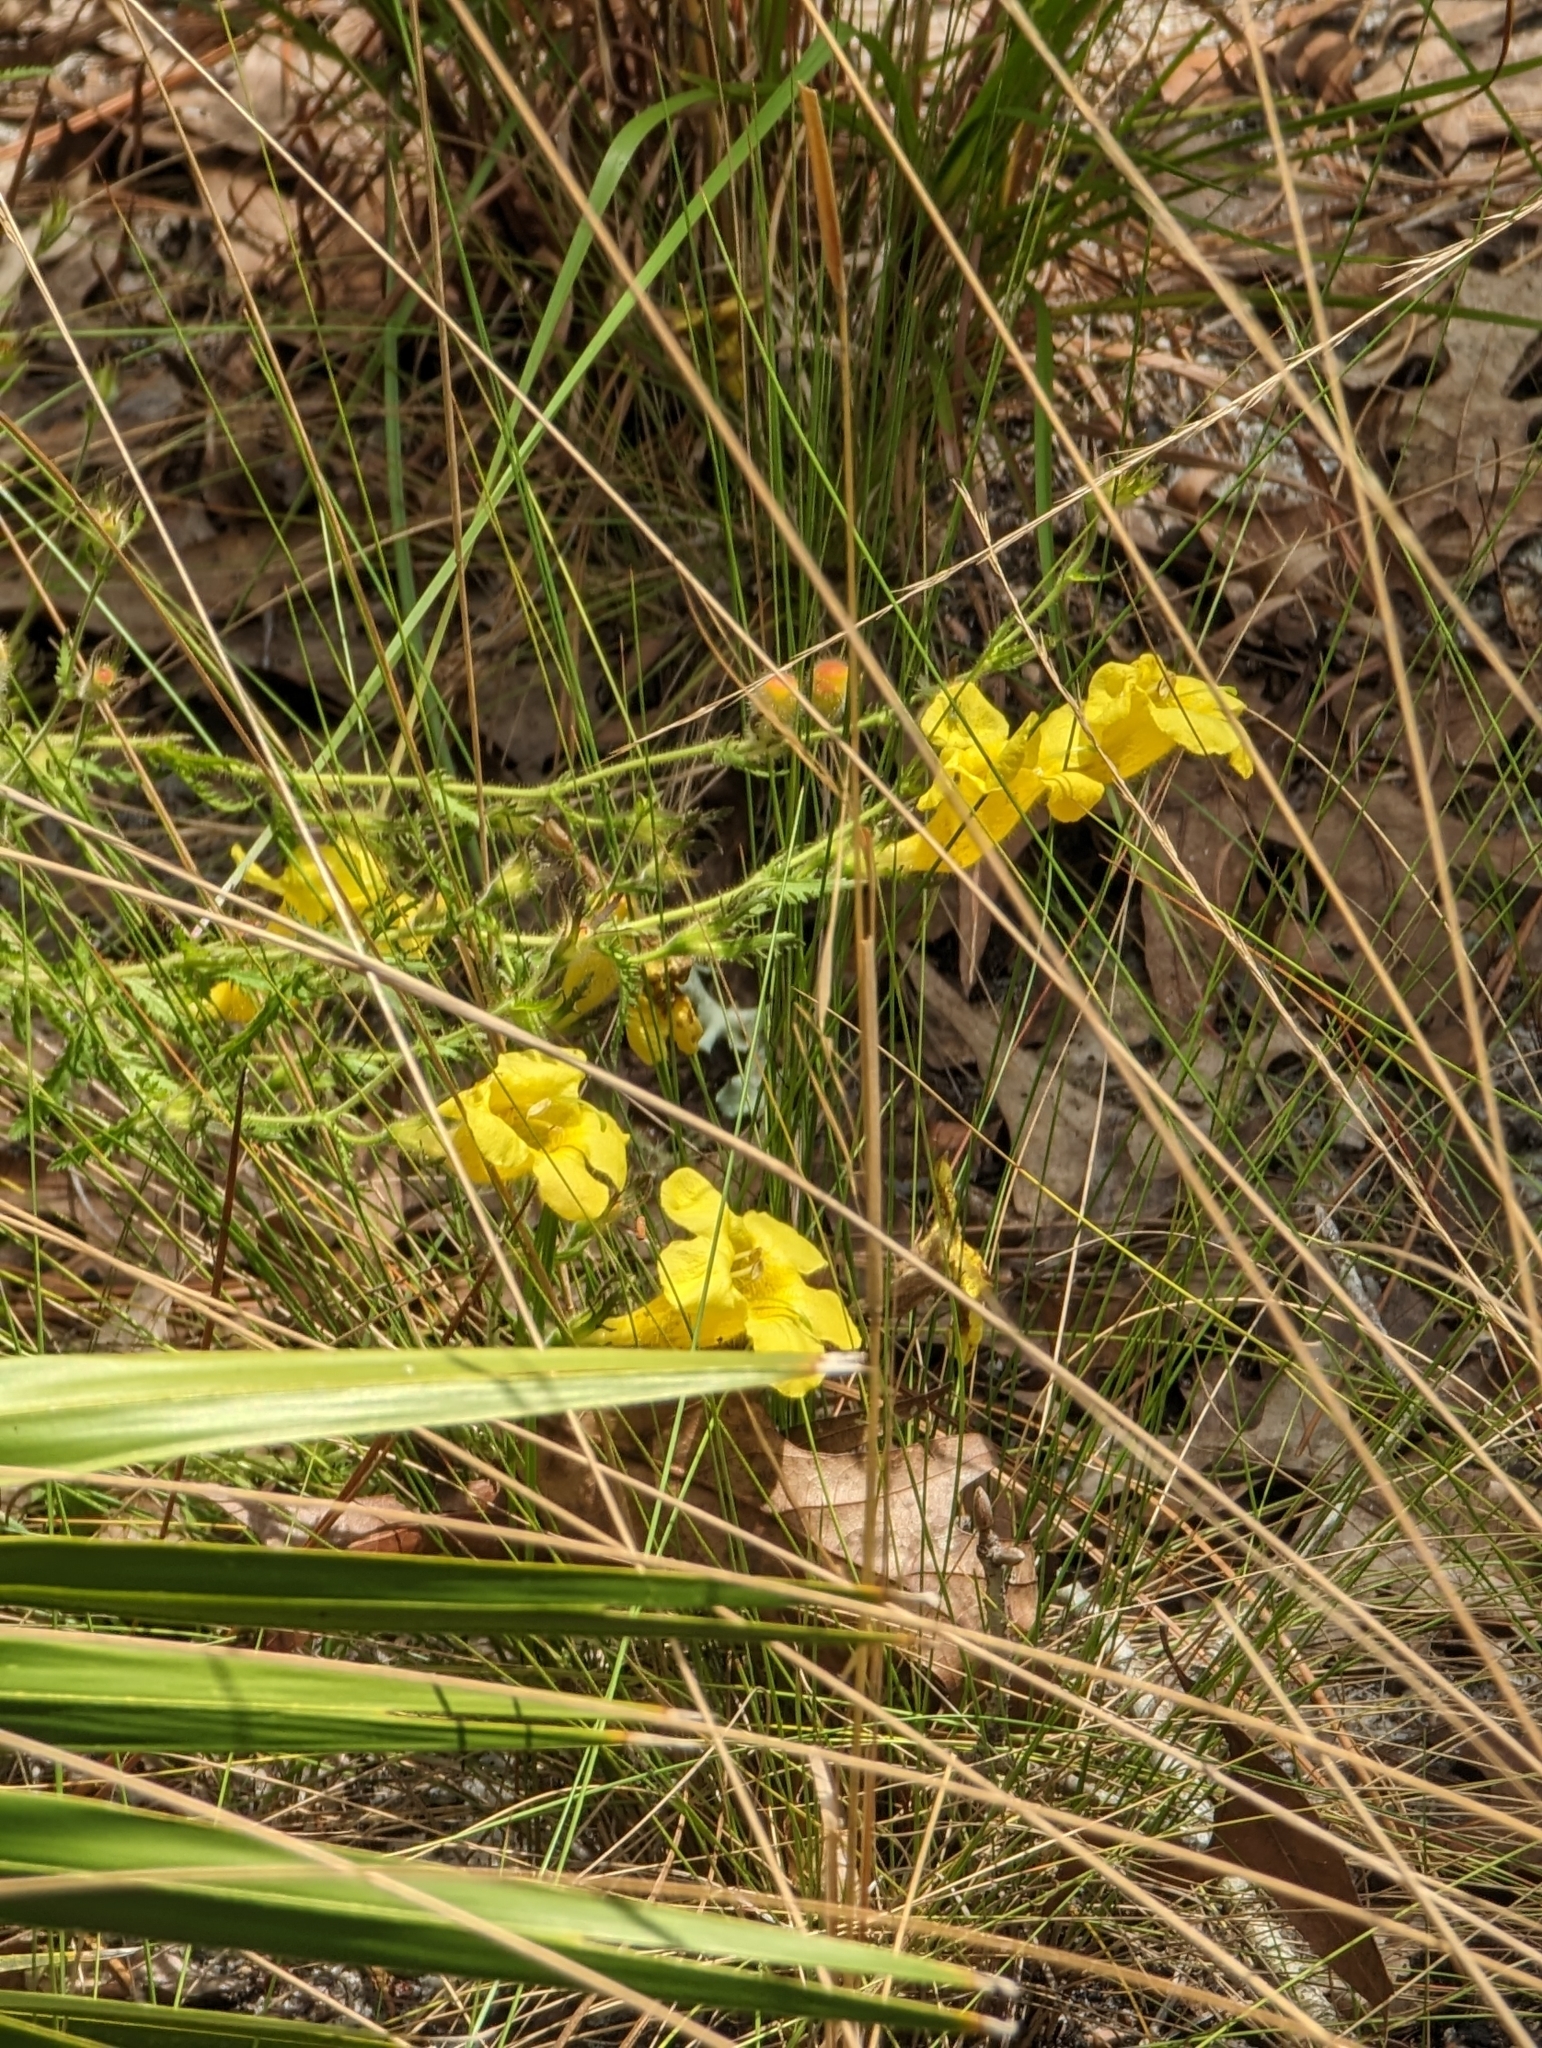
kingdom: Plantae
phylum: Tracheophyta
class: Magnoliopsida
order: Lamiales
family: Orobanchaceae
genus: Aureolaria
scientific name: Aureolaria pectinata
